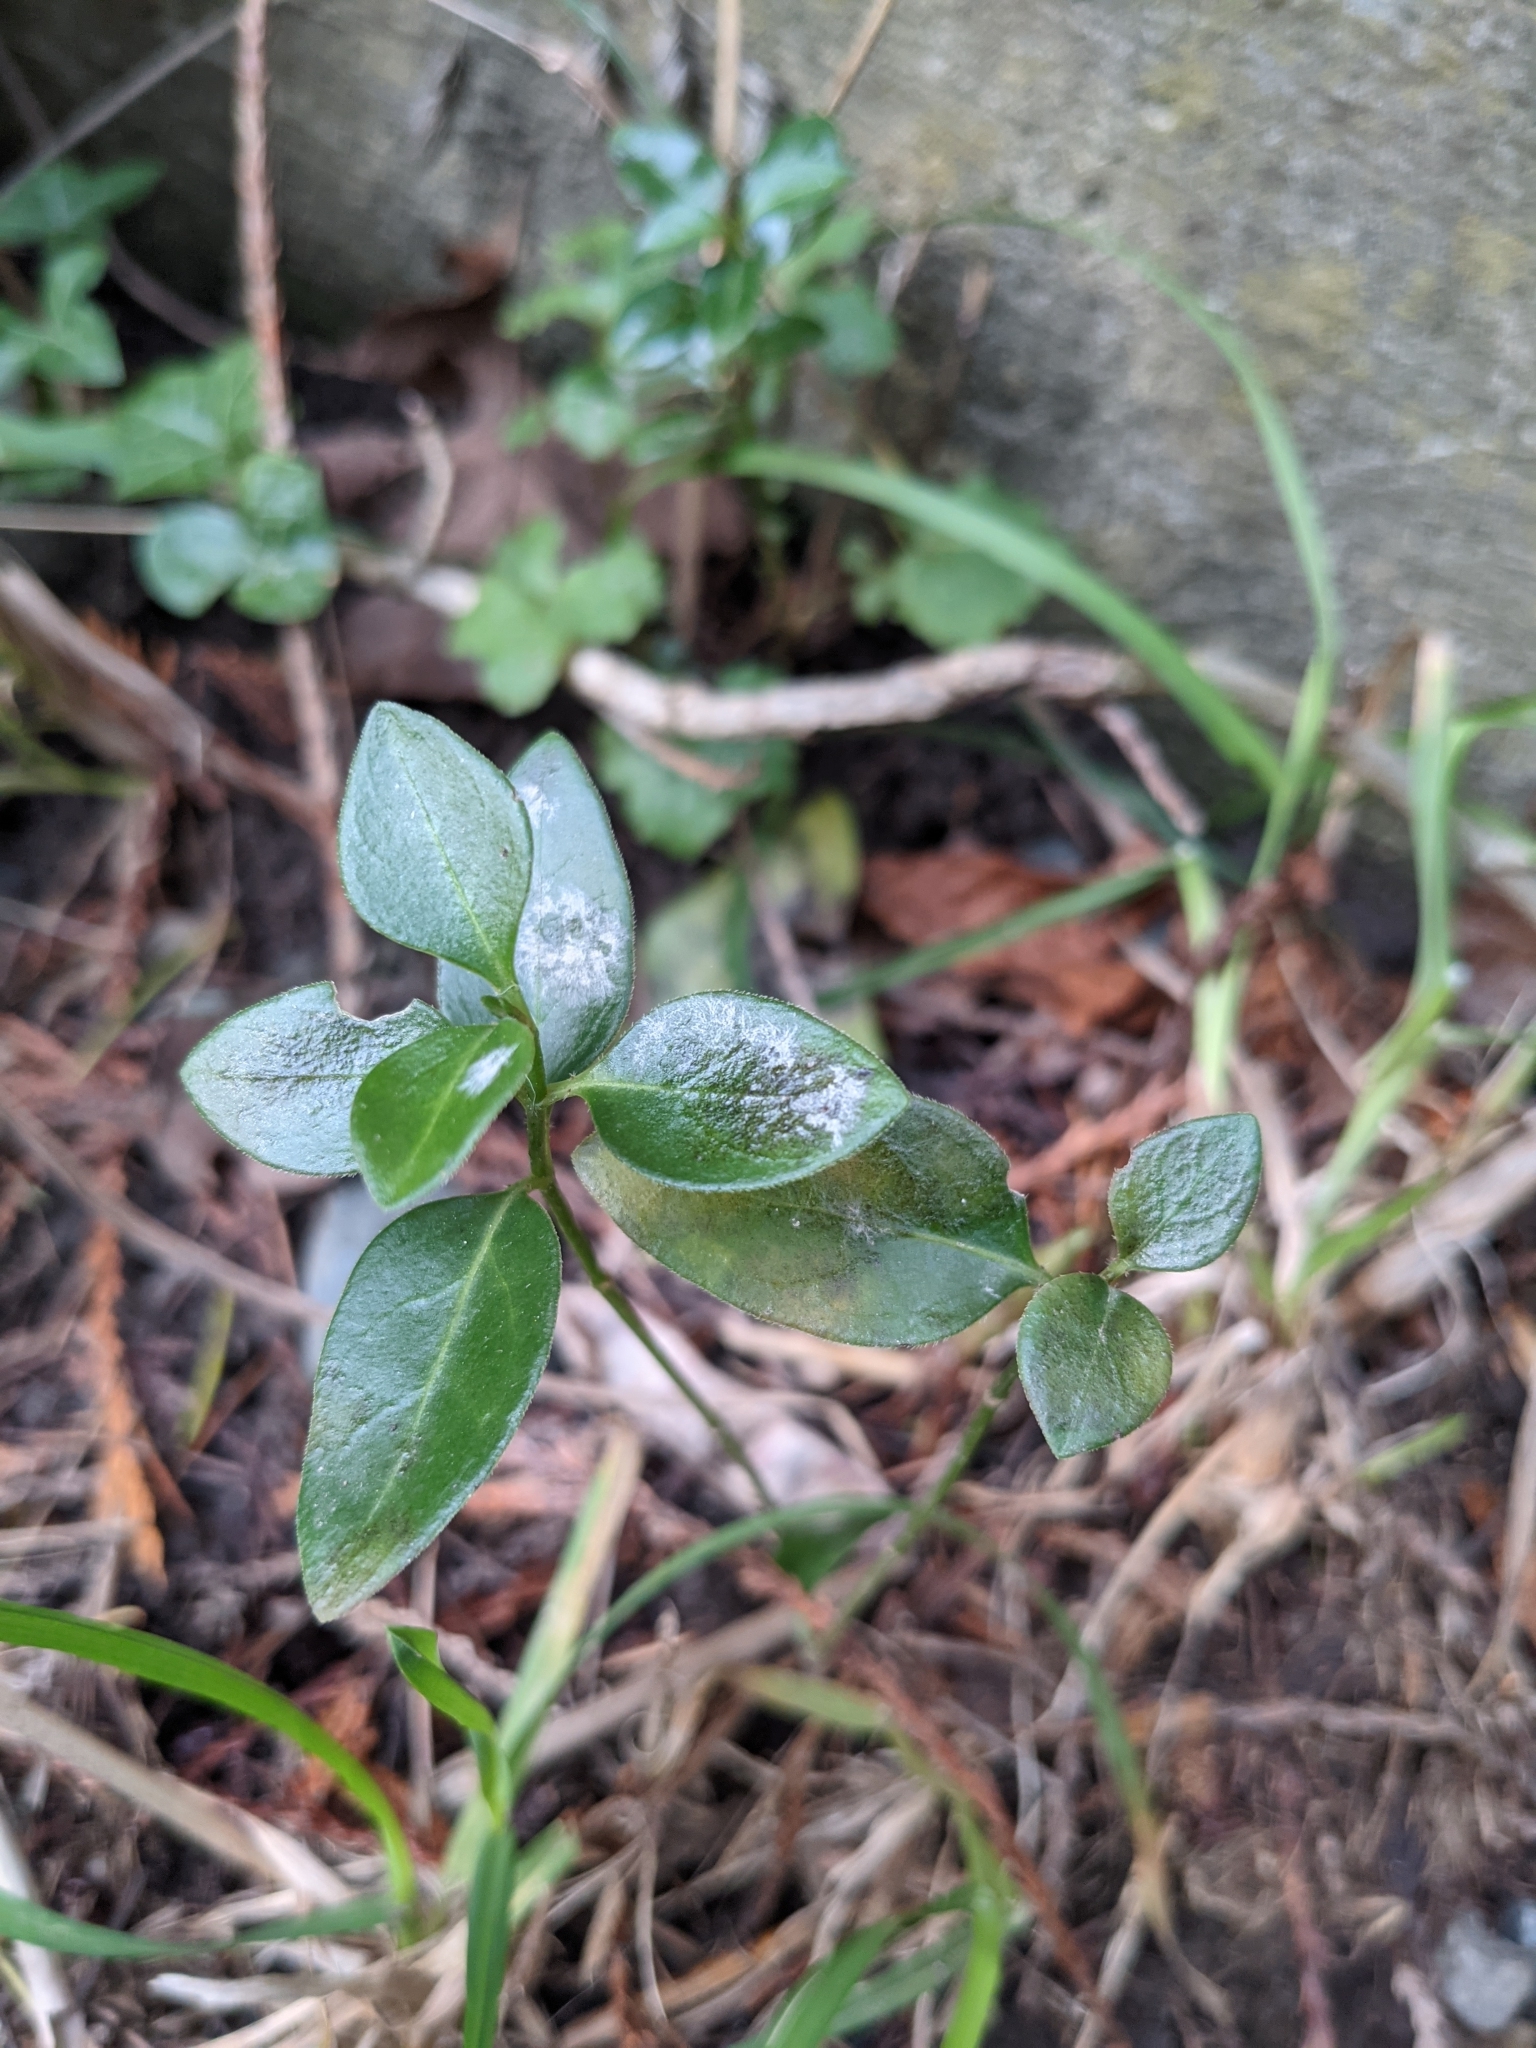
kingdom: Plantae
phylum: Tracheophyta
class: Magnoliopsida
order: Gentianales
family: Apocynaceae
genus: Vinca
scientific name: Vinca major
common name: Greater periwinkle
